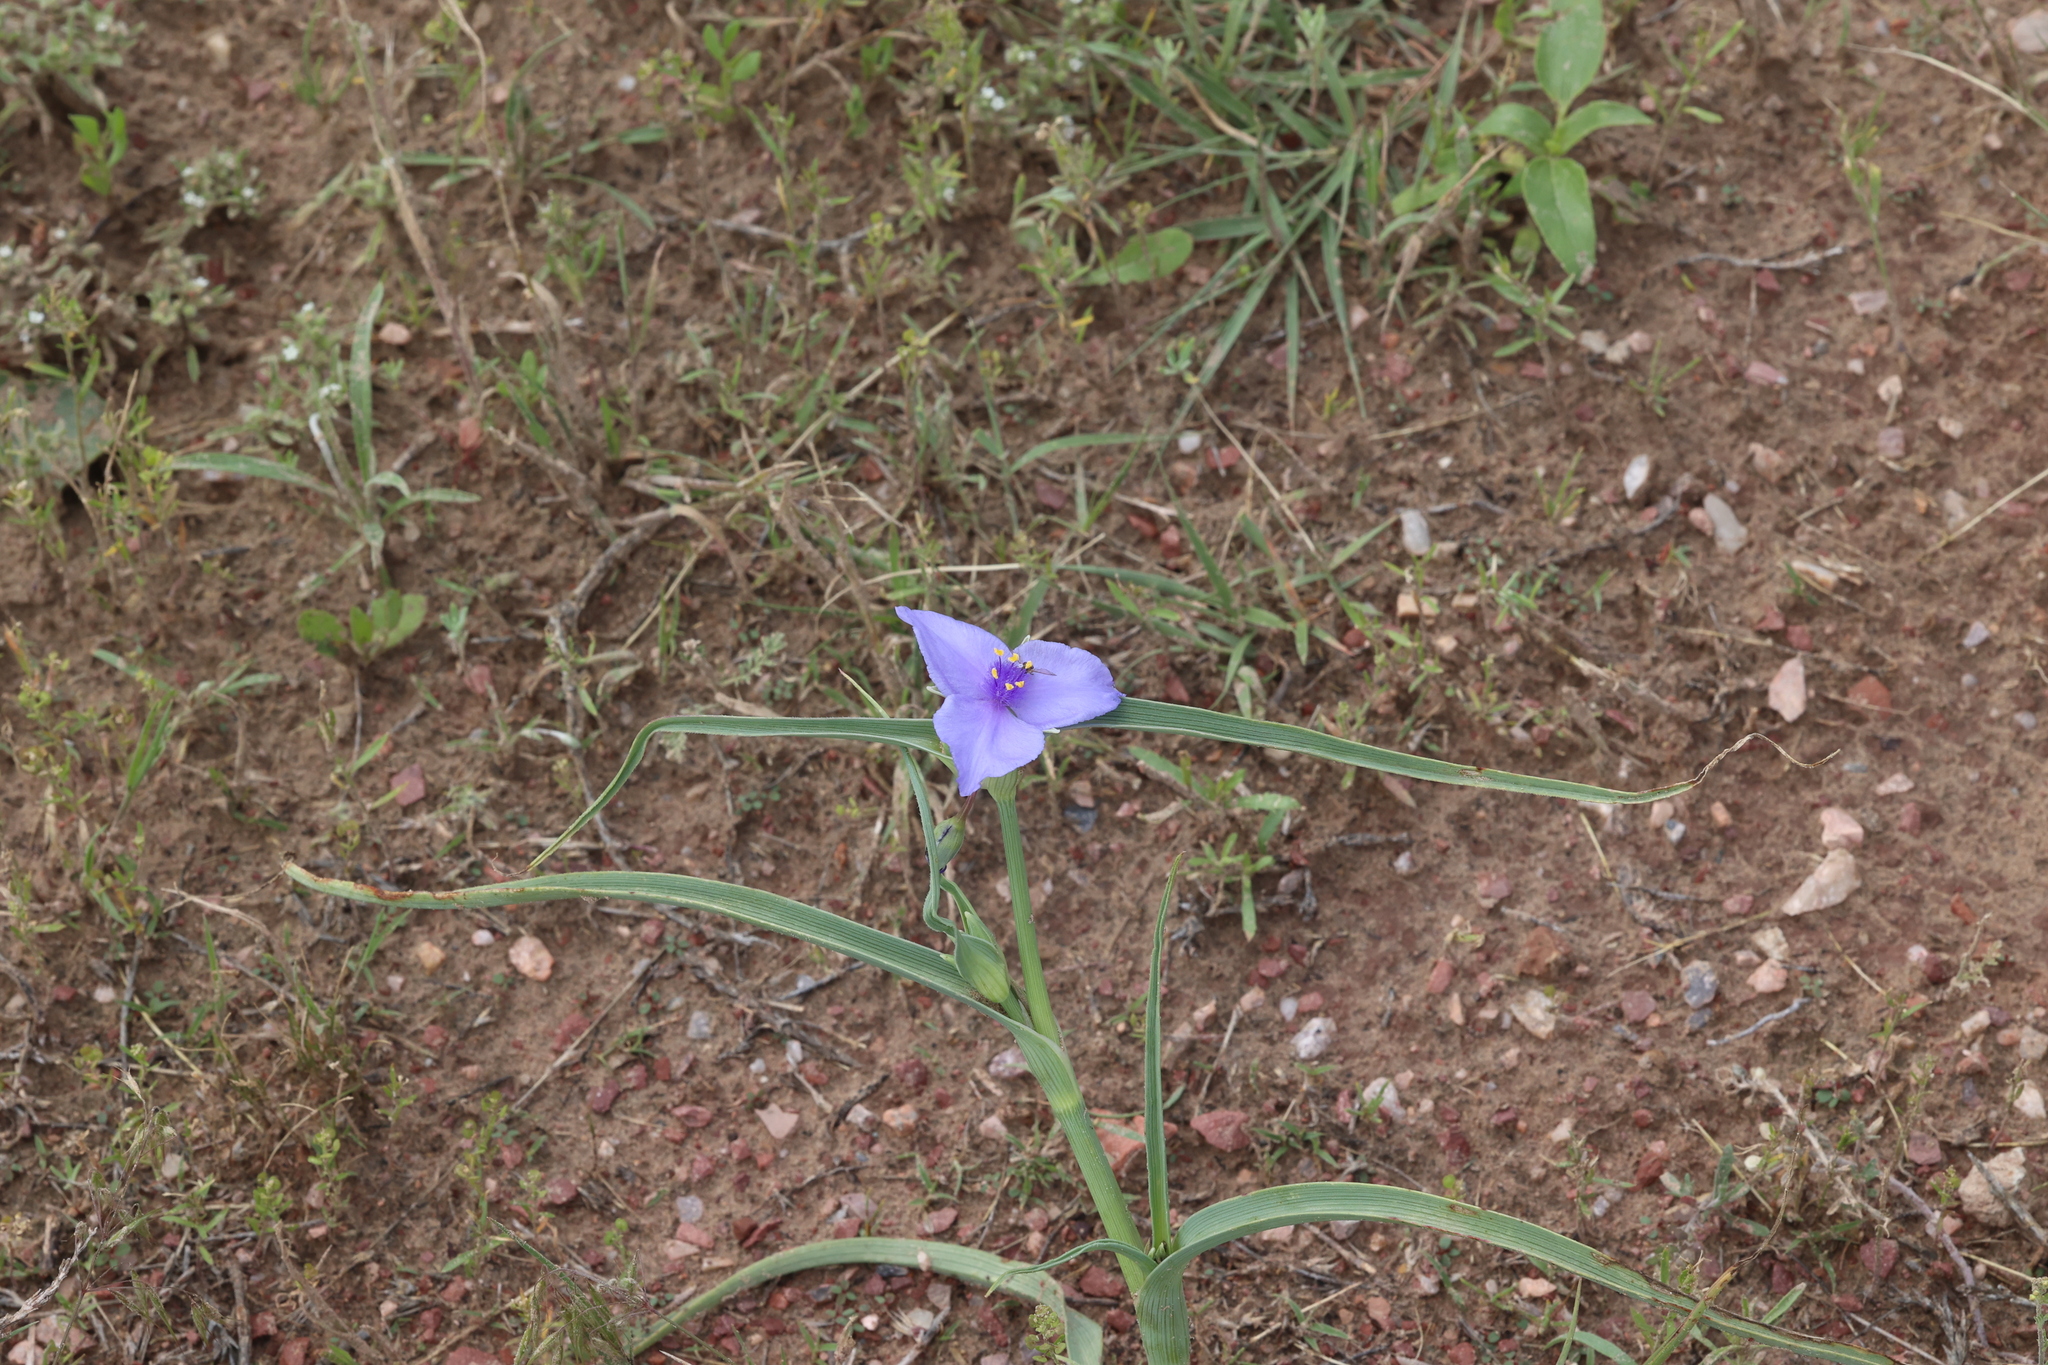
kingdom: Plantae
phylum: Tracheophyta
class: Liliopsida
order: Commelinales
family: Commelinaceae
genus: Tradescantia
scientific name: Tradescantia occidentalis
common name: Prairie spiderwort
